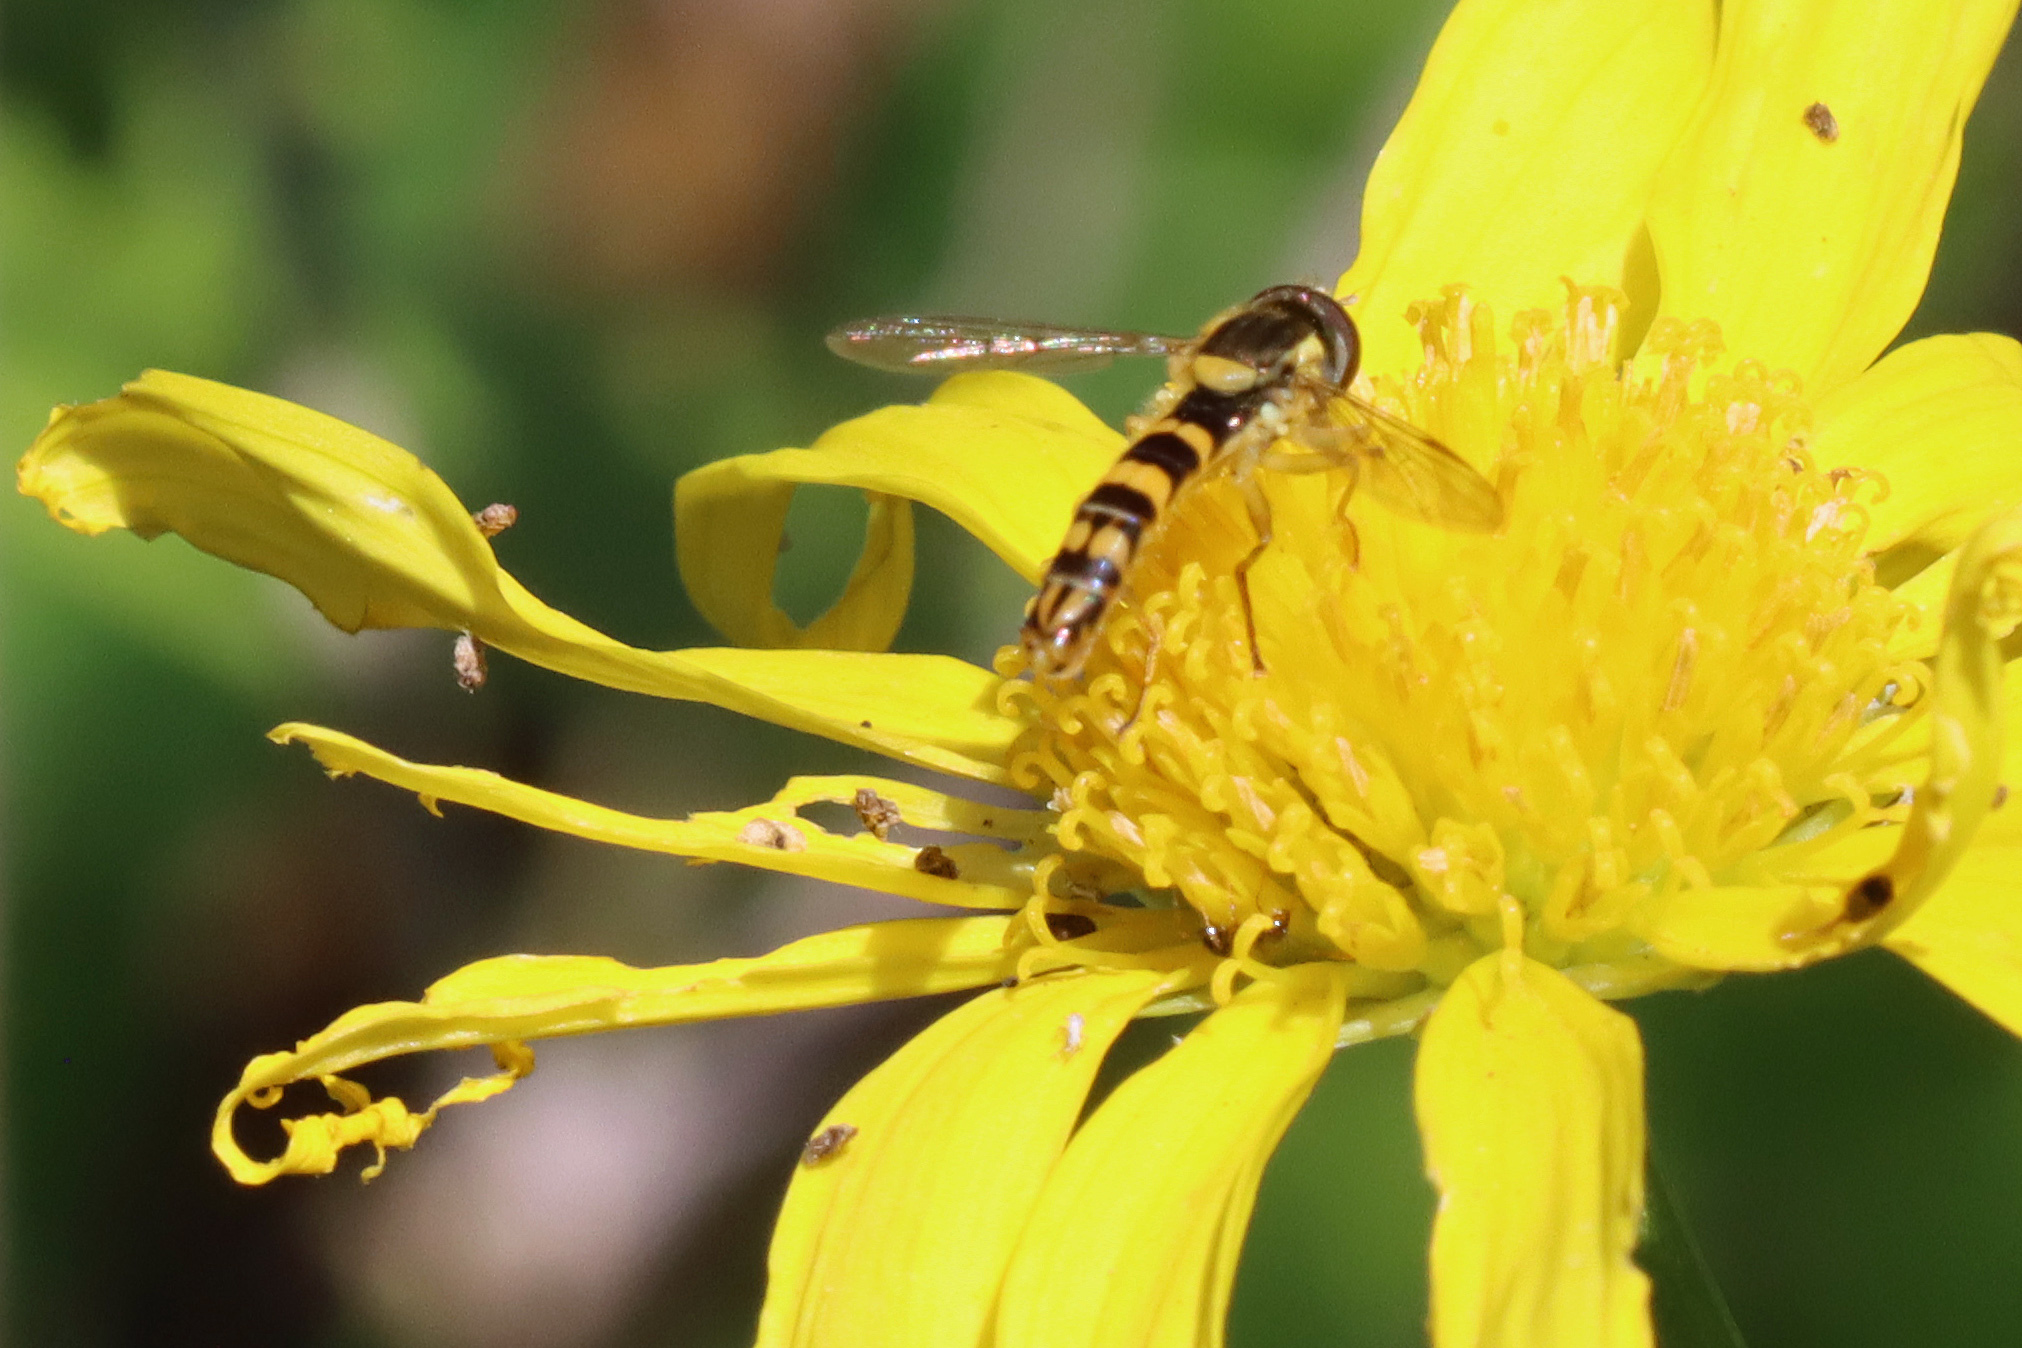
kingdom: Animalia
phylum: Arthropoda
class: Insecta
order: Diptera
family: Syrphidae
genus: Sphaerophoria
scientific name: Sphaerophoria scripta
